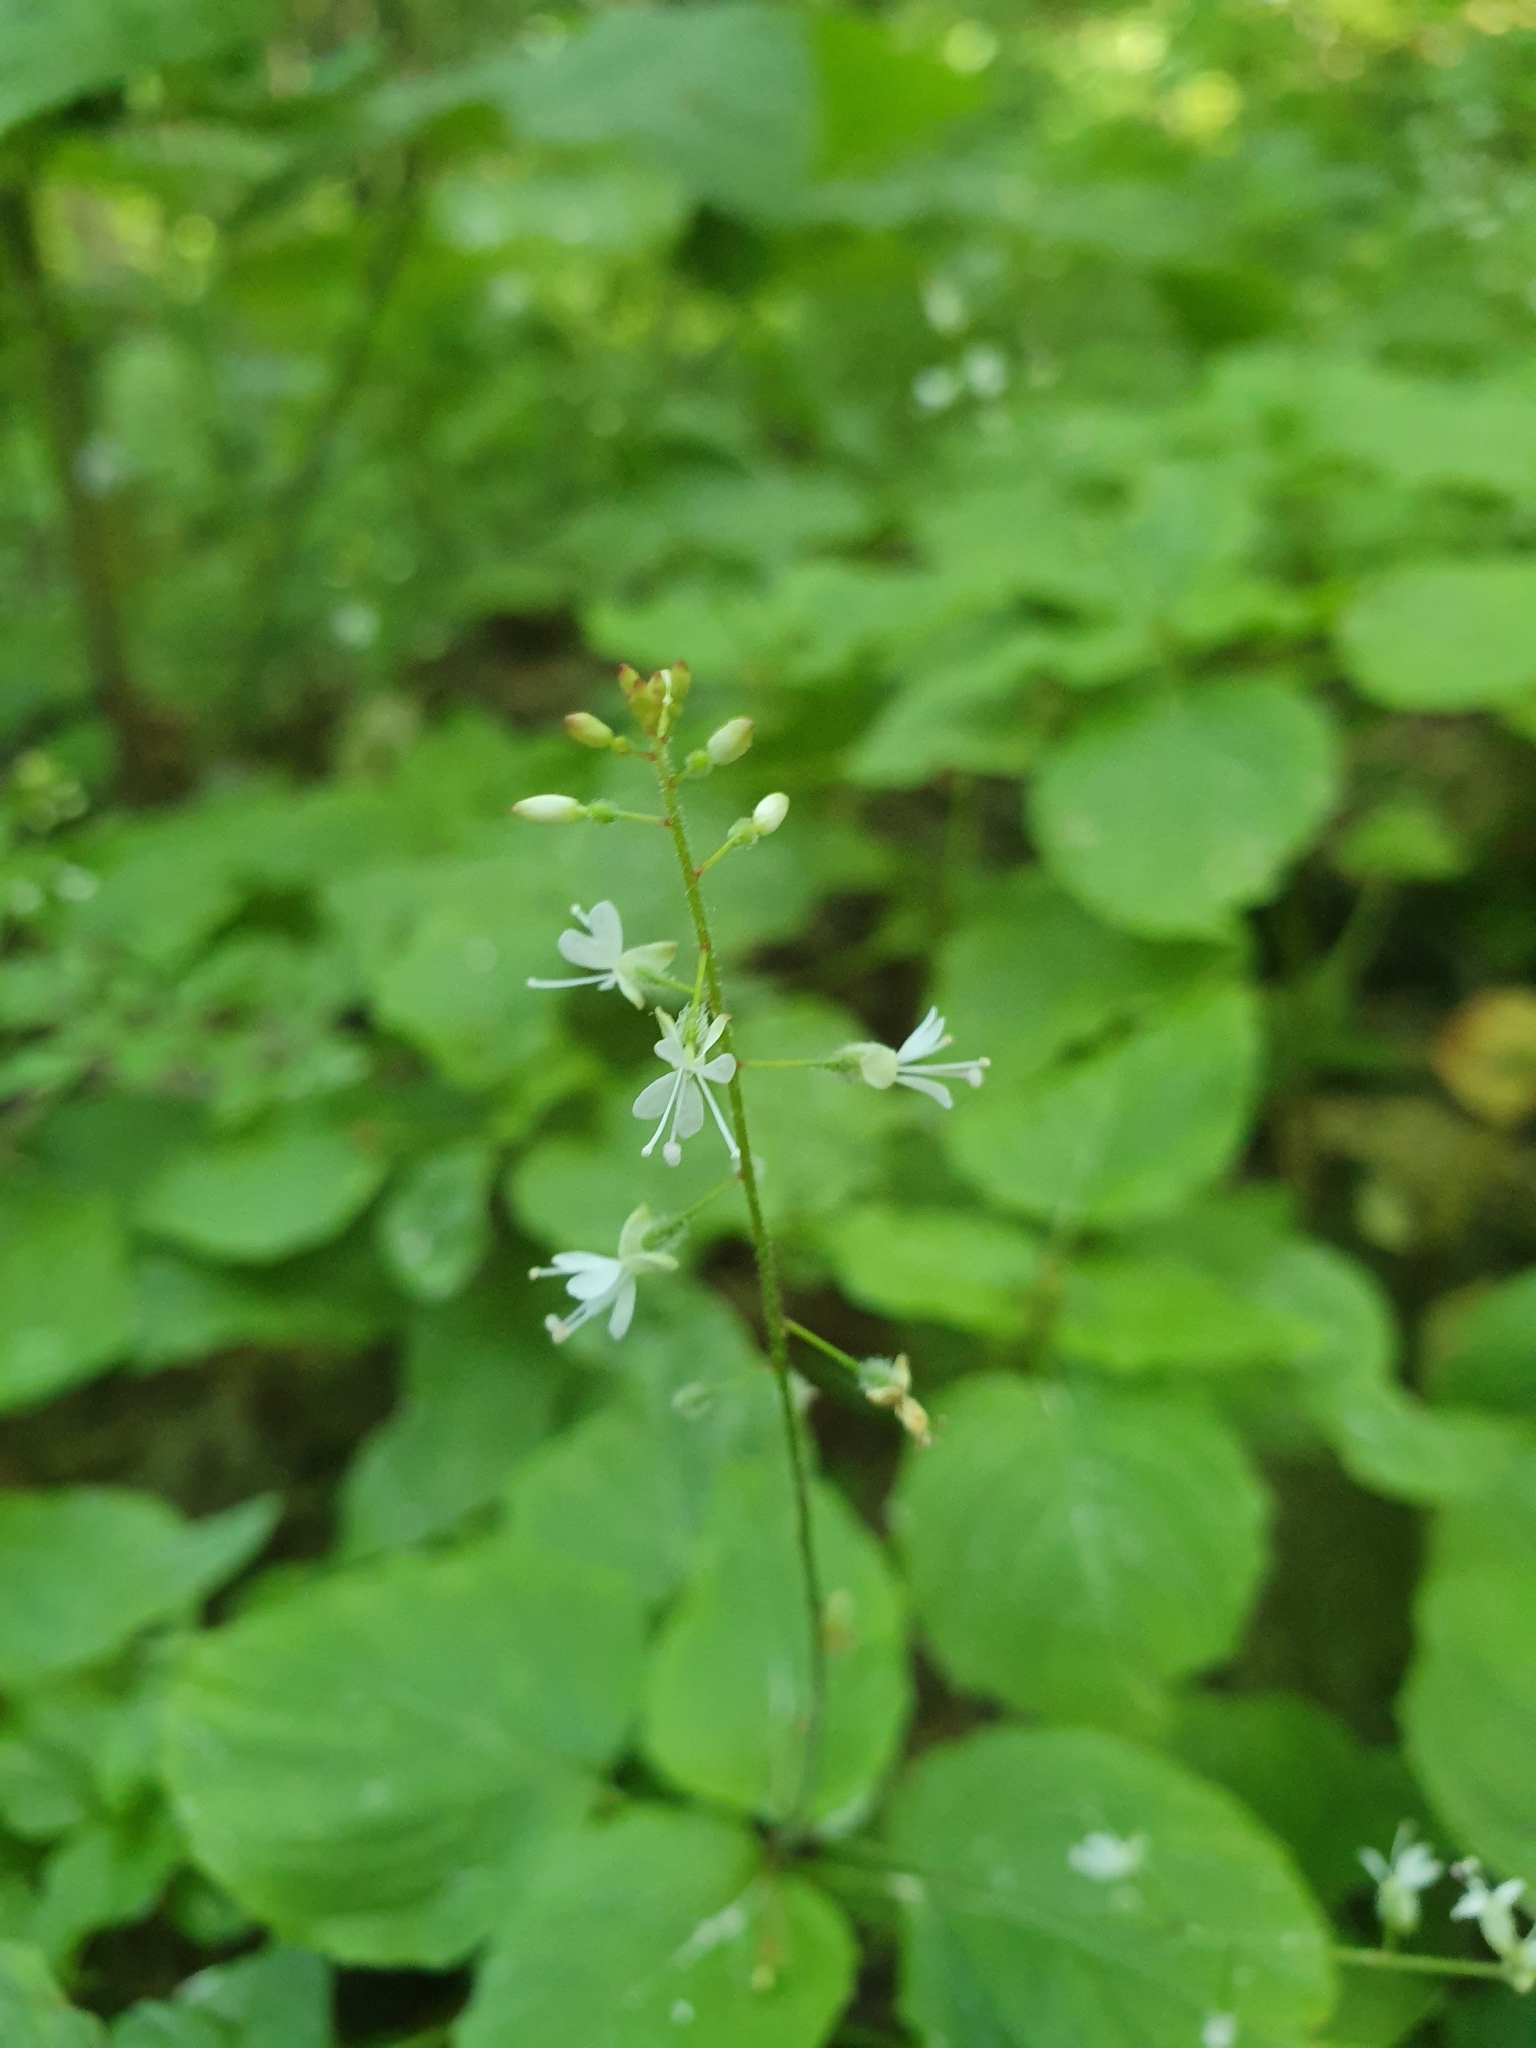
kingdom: Plantae
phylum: Tracheophyta
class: Magnoliopsida
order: Myrtales
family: Onagraceae
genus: Circaea
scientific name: Circaea lutetiana
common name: Enchanter's-nightshade
